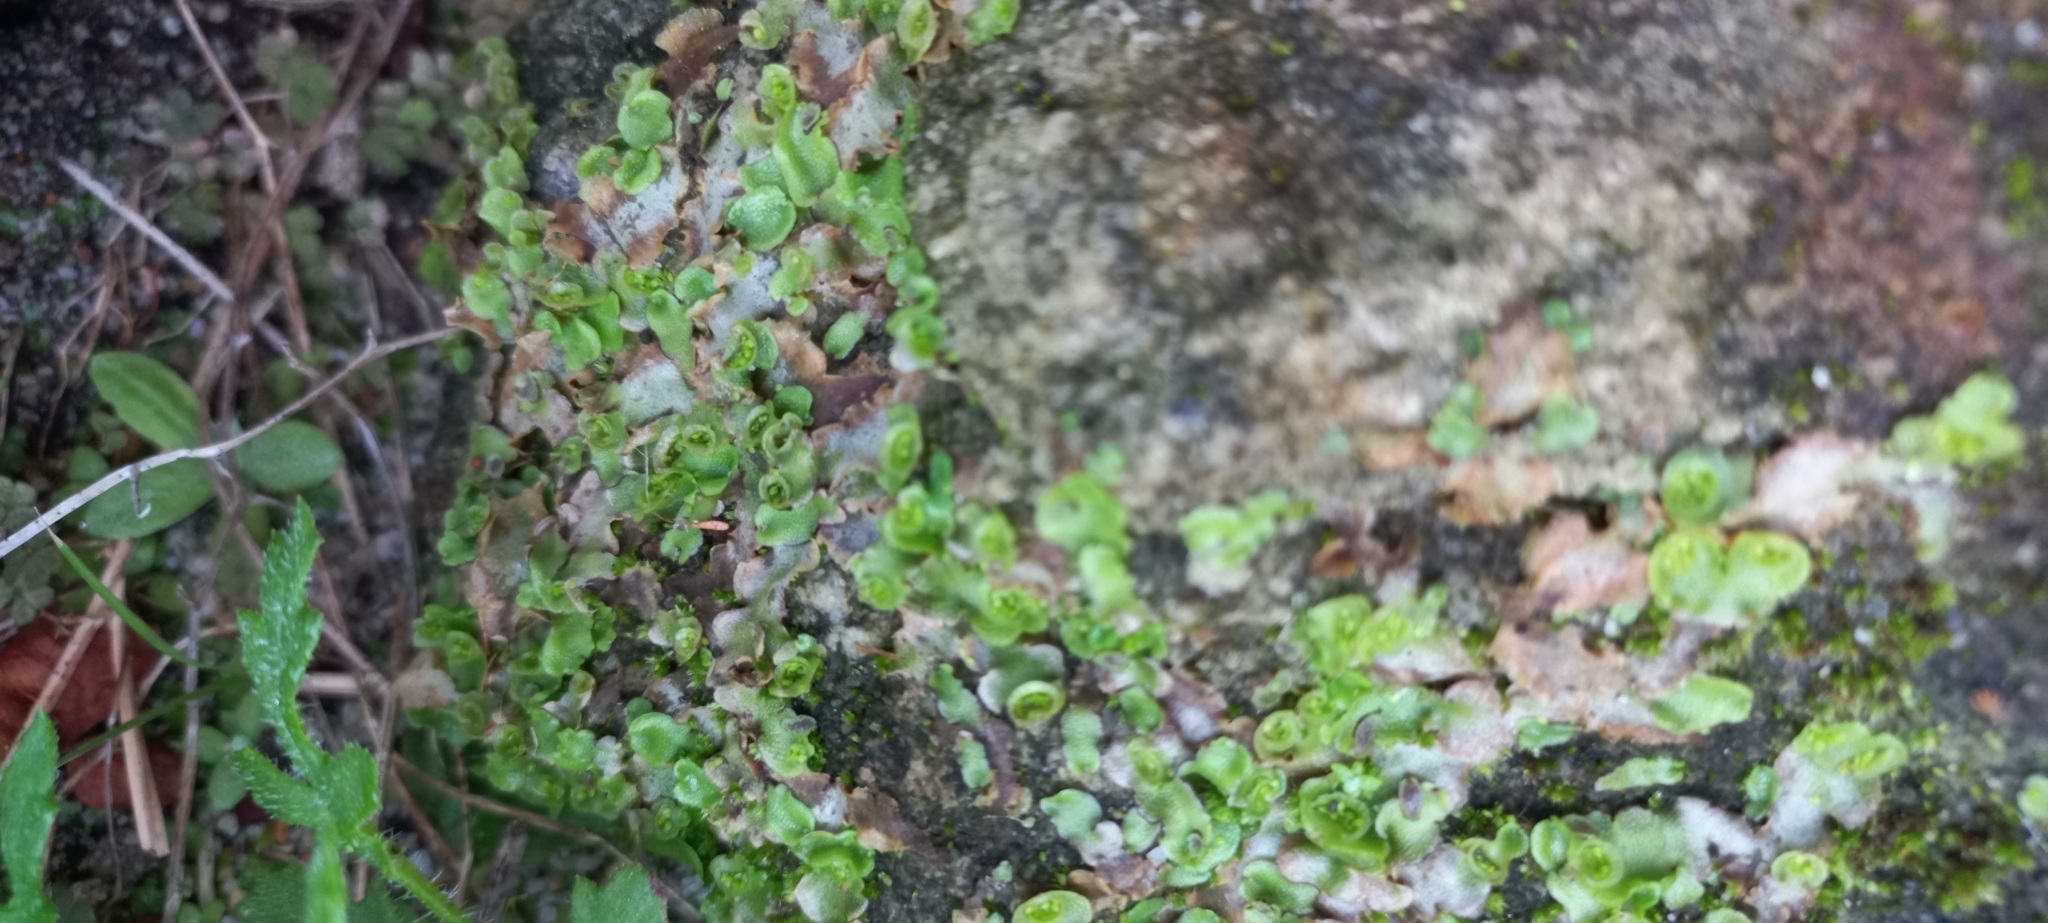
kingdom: Plantae
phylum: Marchantiophyta
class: Marchantiopsida
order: Lunulariales
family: Lunulariaceae
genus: Lunularia
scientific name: Lunularia cruciata
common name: Crescent-cup liverwort
